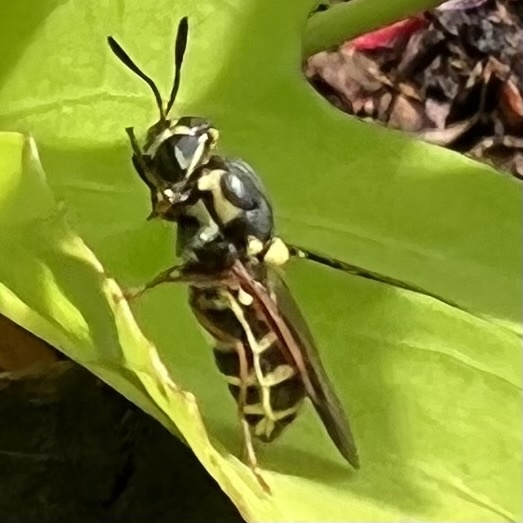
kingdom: Animalia
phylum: Arthropoda
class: Insecta
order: Diptera
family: Stratiomyidae
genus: Hoplitimyia
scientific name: Hoplitimyia constans
